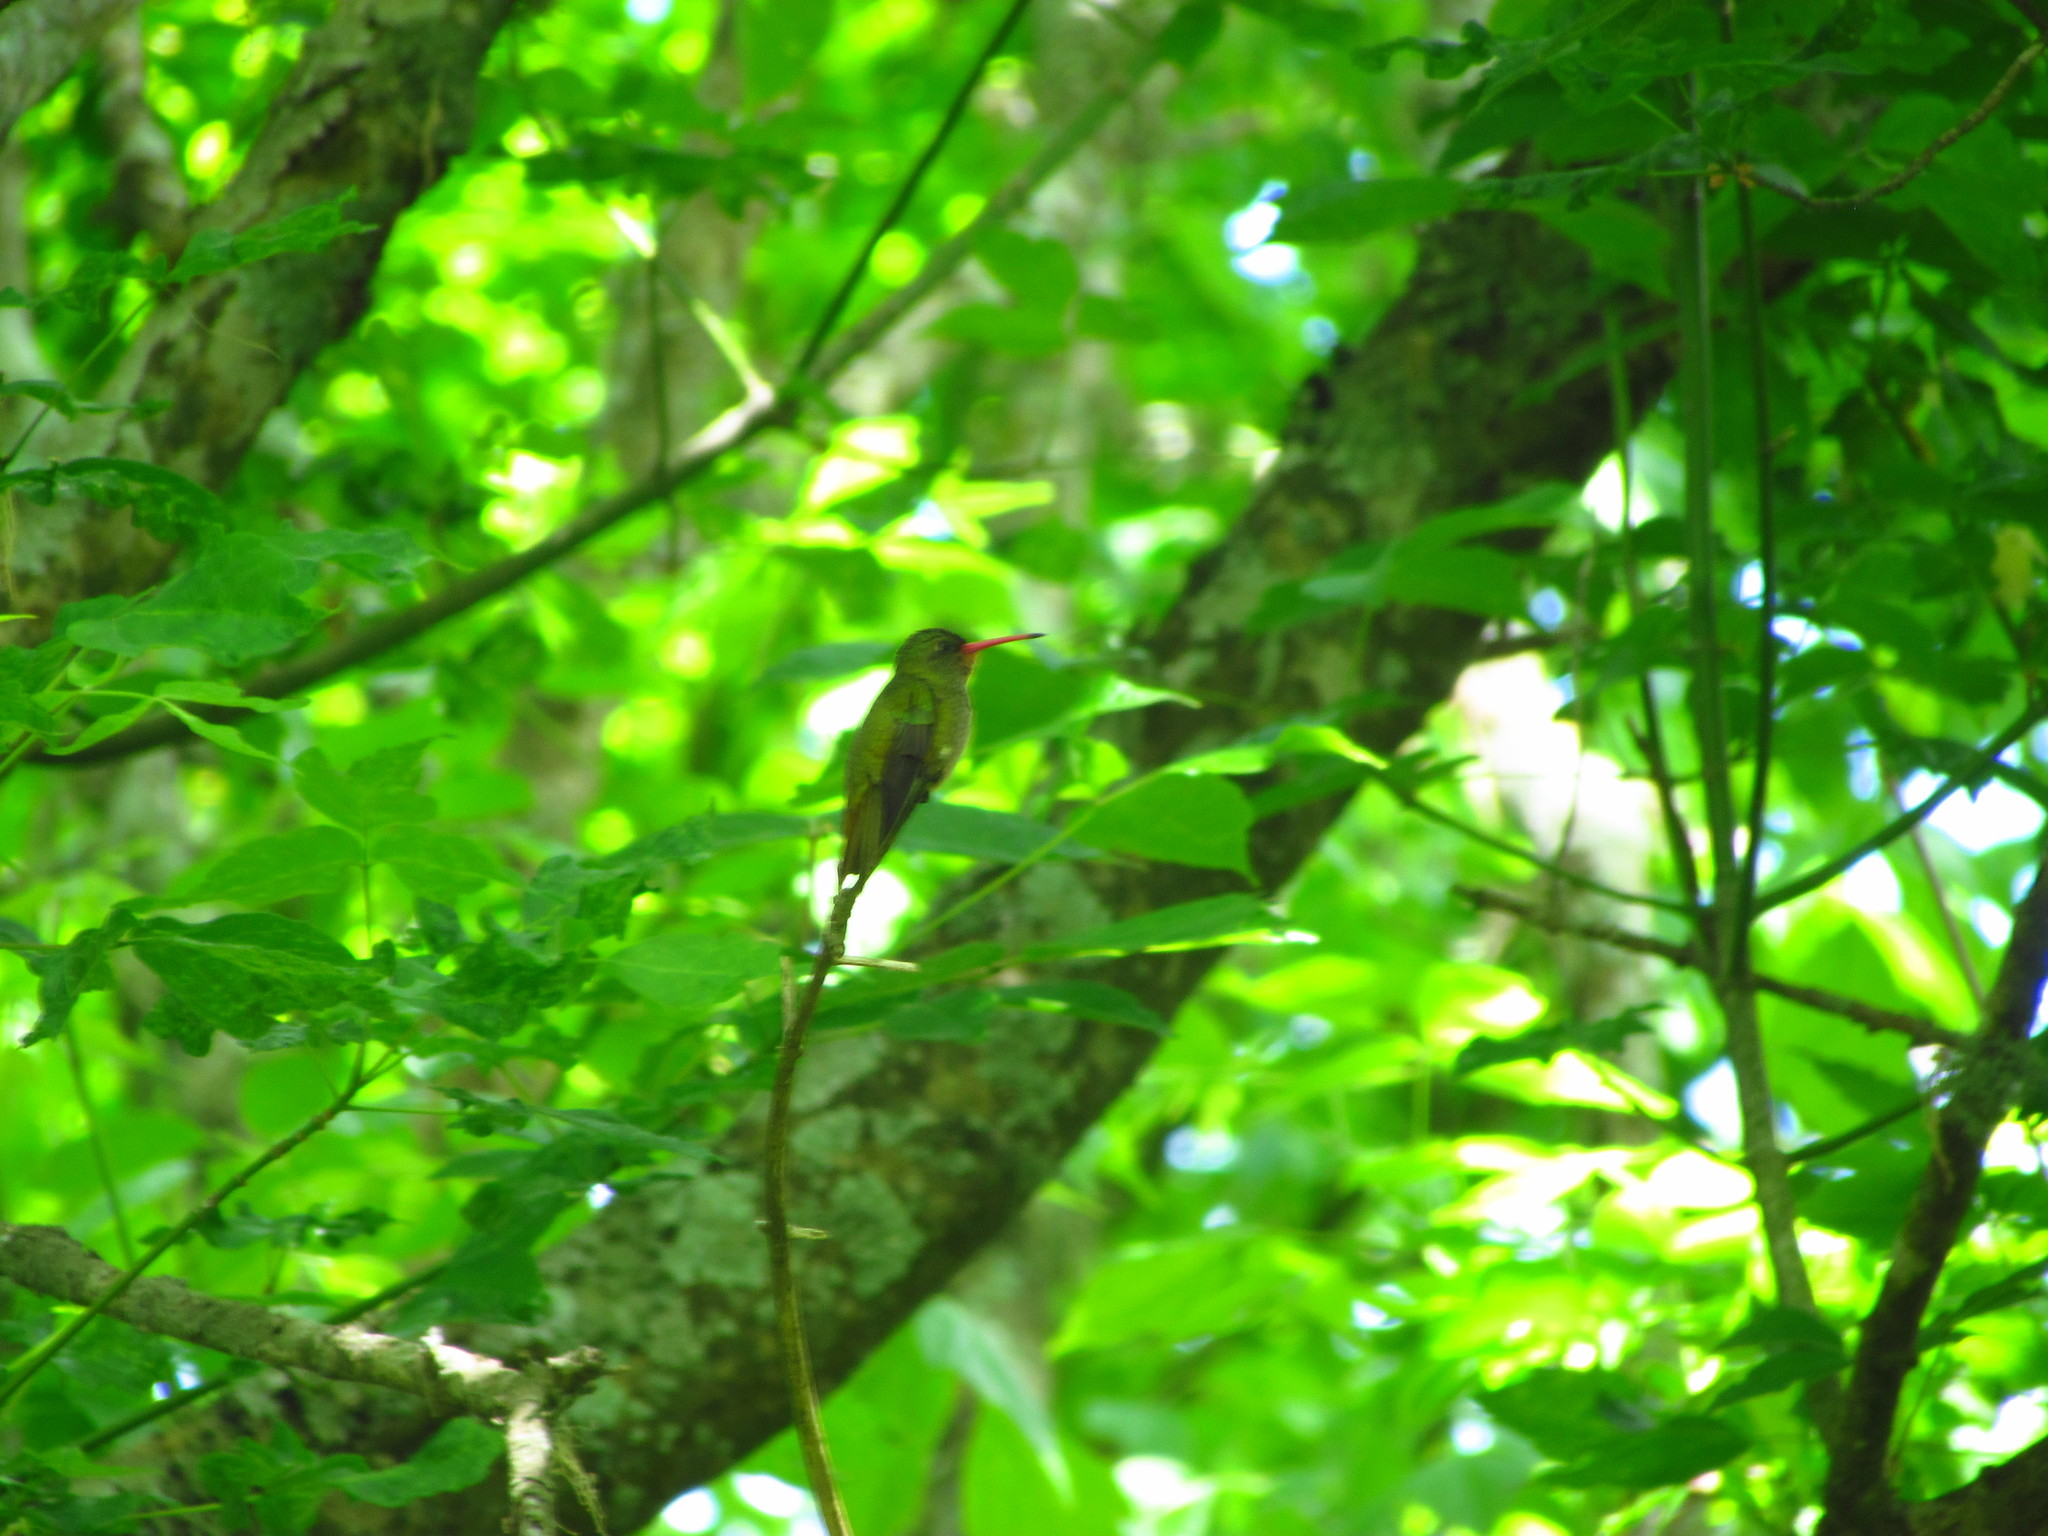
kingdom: Animalia
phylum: Chordata
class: Aves
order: Apodiformes
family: Trochilidae
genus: Hylocharis
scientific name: Hylocharis chrysura
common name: Gilded sapphire
